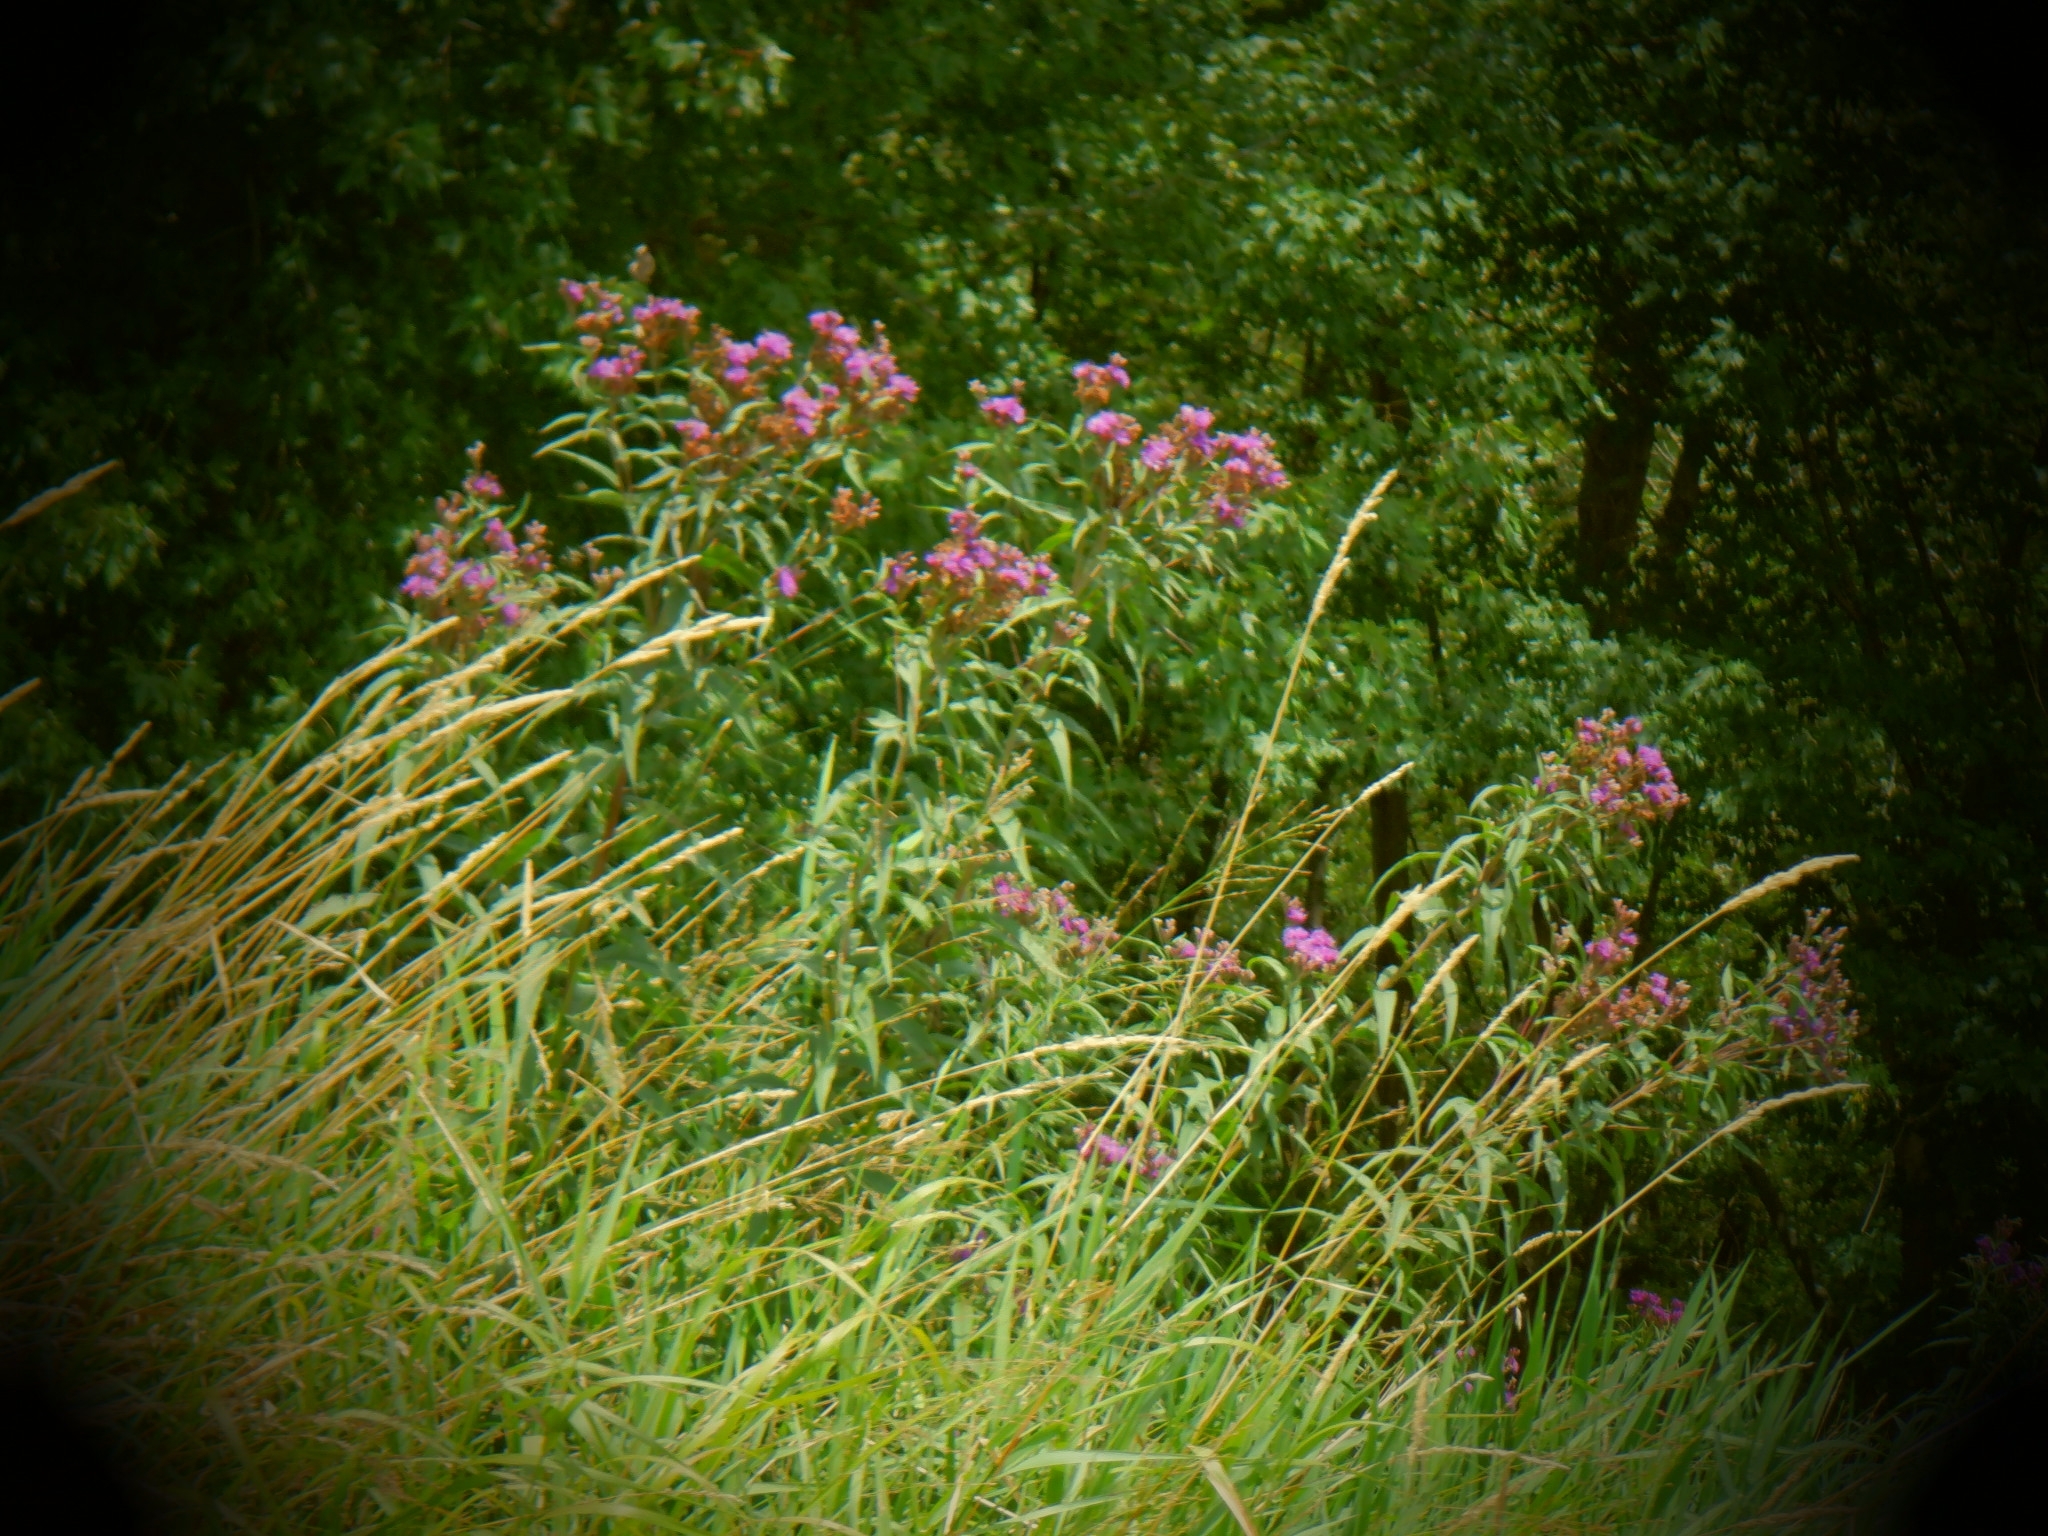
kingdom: Plantae
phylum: Tracheophyta
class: Magnoliopsida
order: Asterales
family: Asteraceae
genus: Vernonia
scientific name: Vernonia fasciculata
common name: Fascicled ironweed
